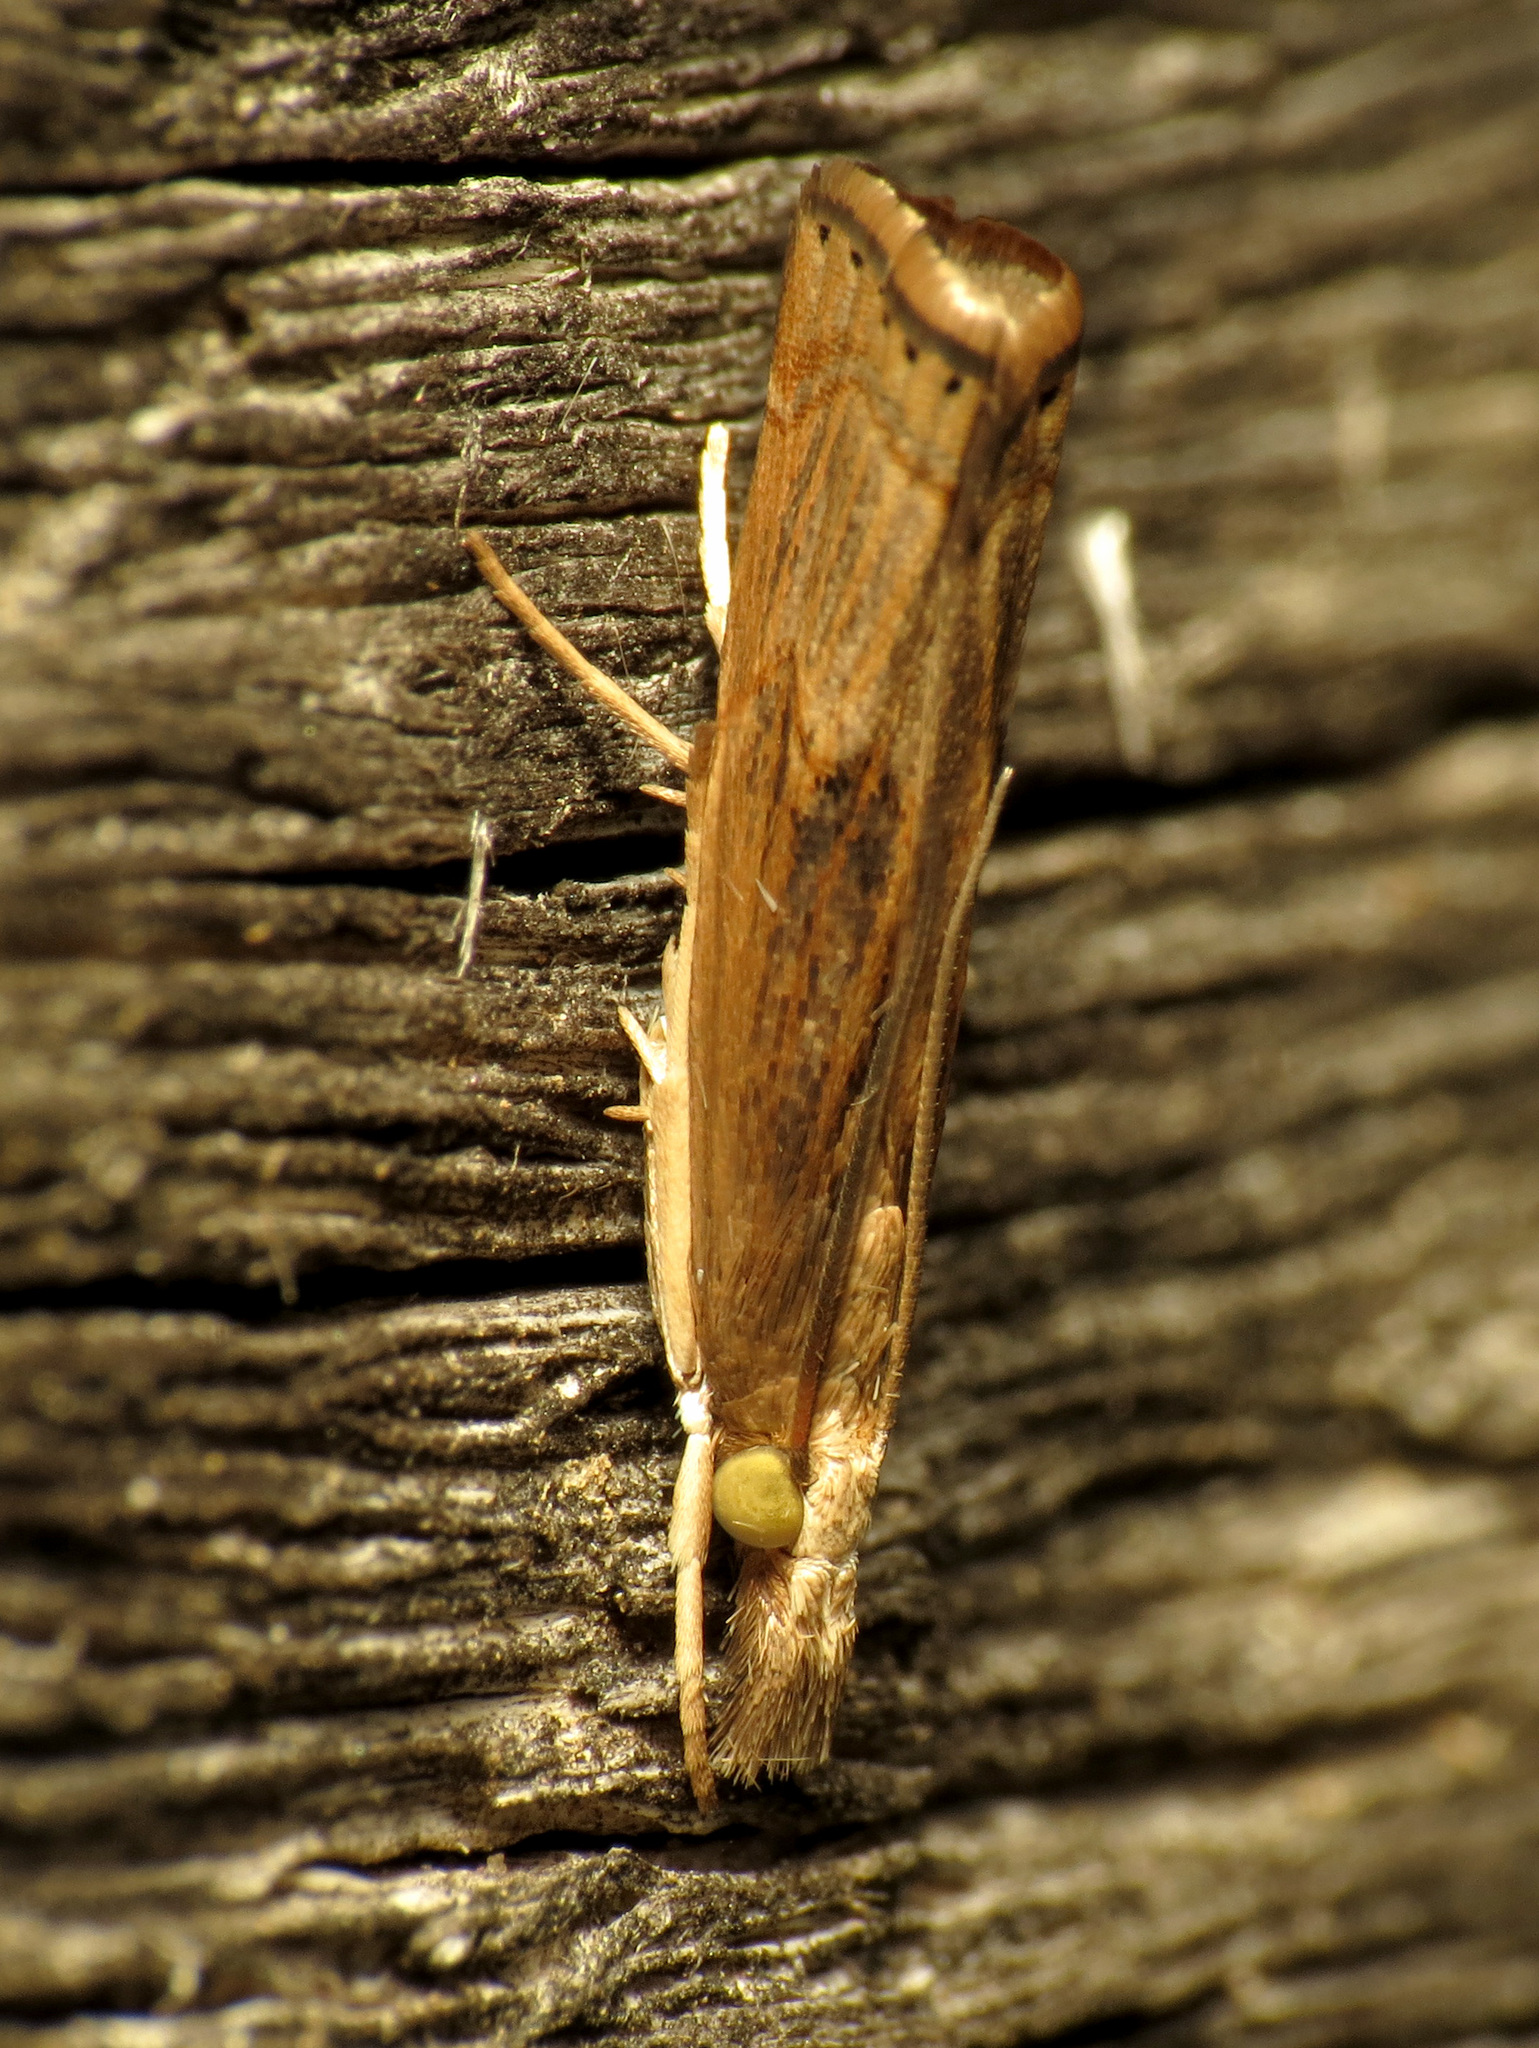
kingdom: Animalia
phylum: Arthropoda
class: Insecta
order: Lepidoptera
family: Crambidae
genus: Parapediasia
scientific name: Parapediasia teterellus
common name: Bluegrass webworm moth
